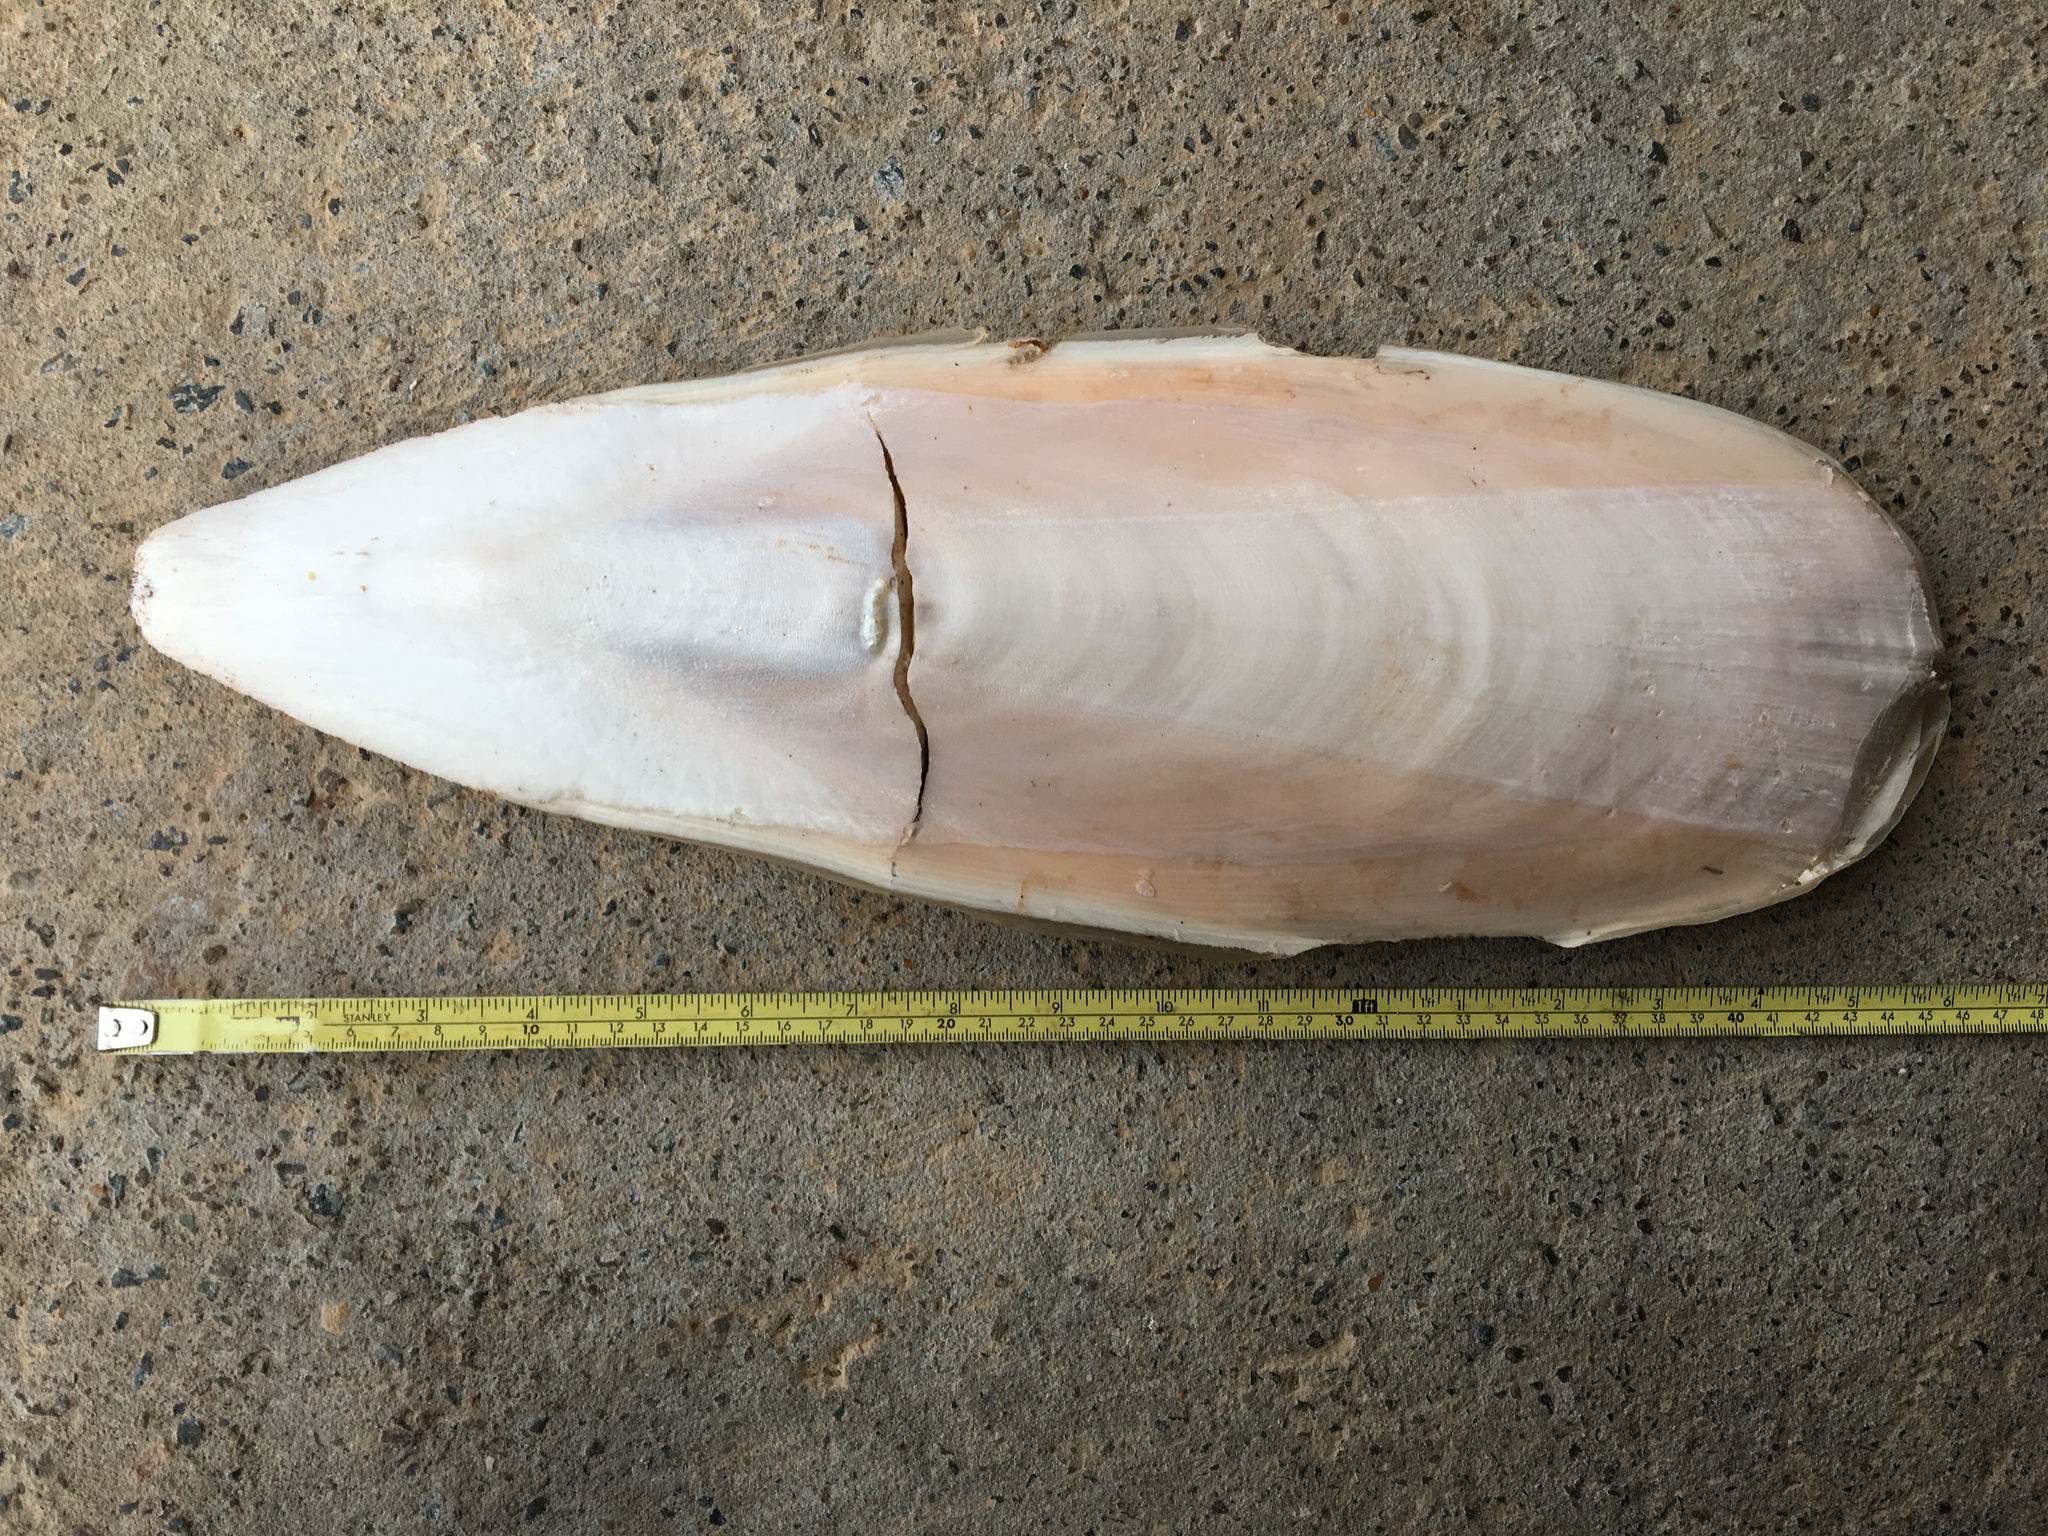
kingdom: Animalia
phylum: Mollusca
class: Cephalopoda
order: Sepiida
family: Sepiidae
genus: Ascarosepion
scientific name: Ascarosepion apama
